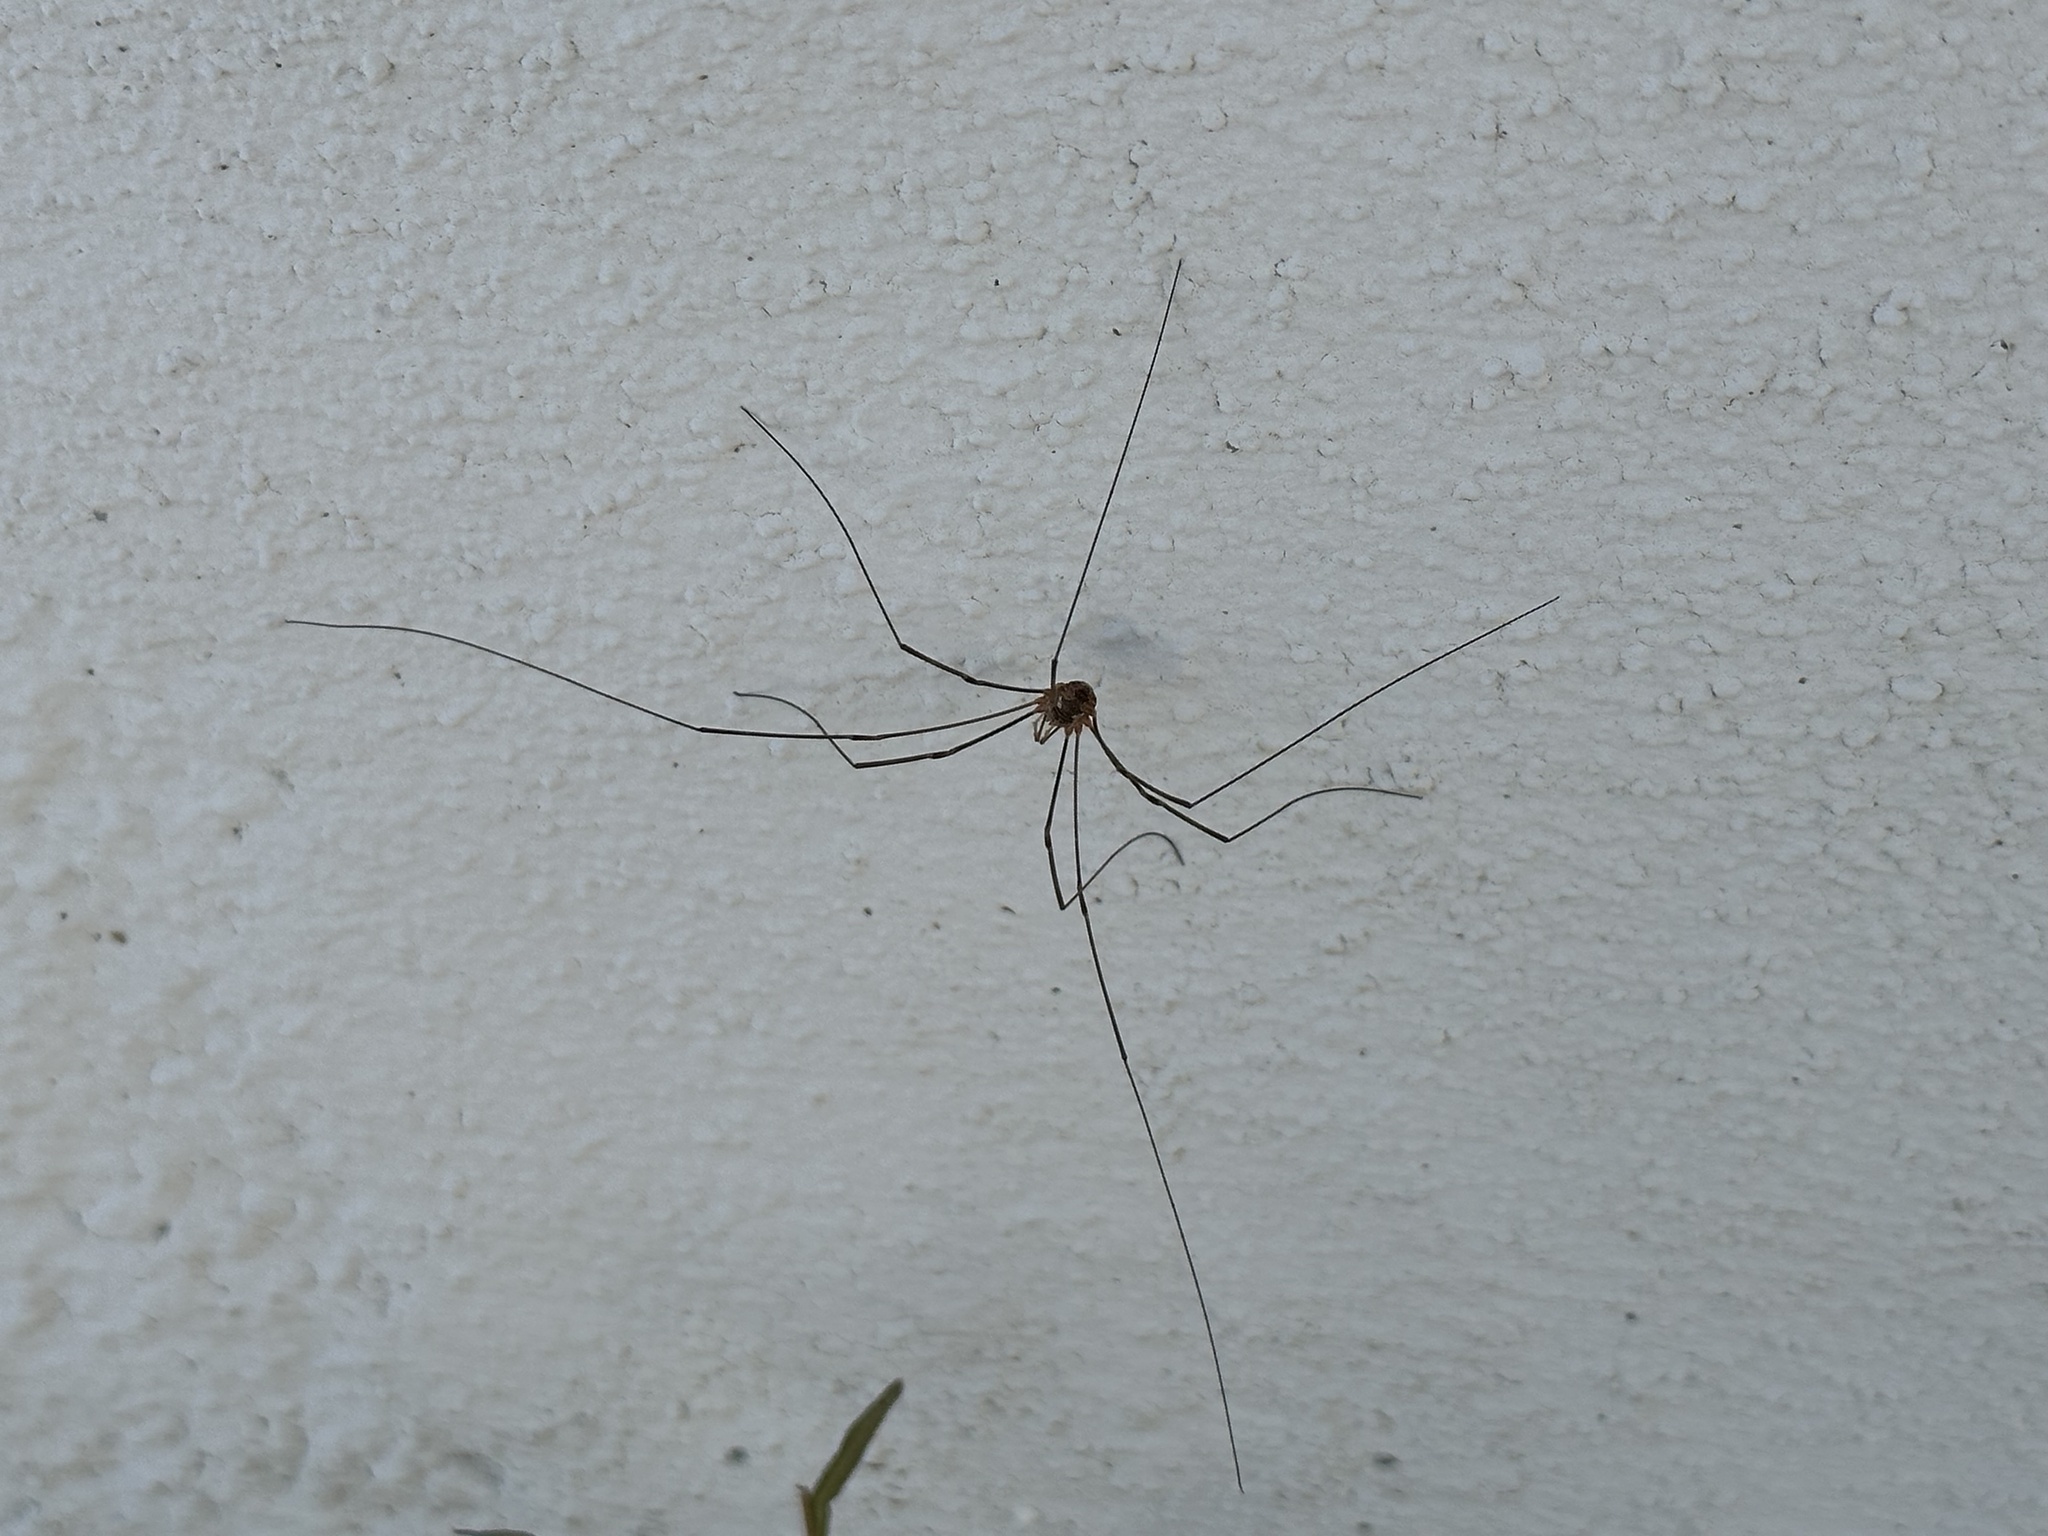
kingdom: Animalia
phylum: Arthropoda
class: Arachnida
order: Opiliones
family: Phalangiidae
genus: Phalangium
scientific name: Phalangium opilio
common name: Daddy longleg
